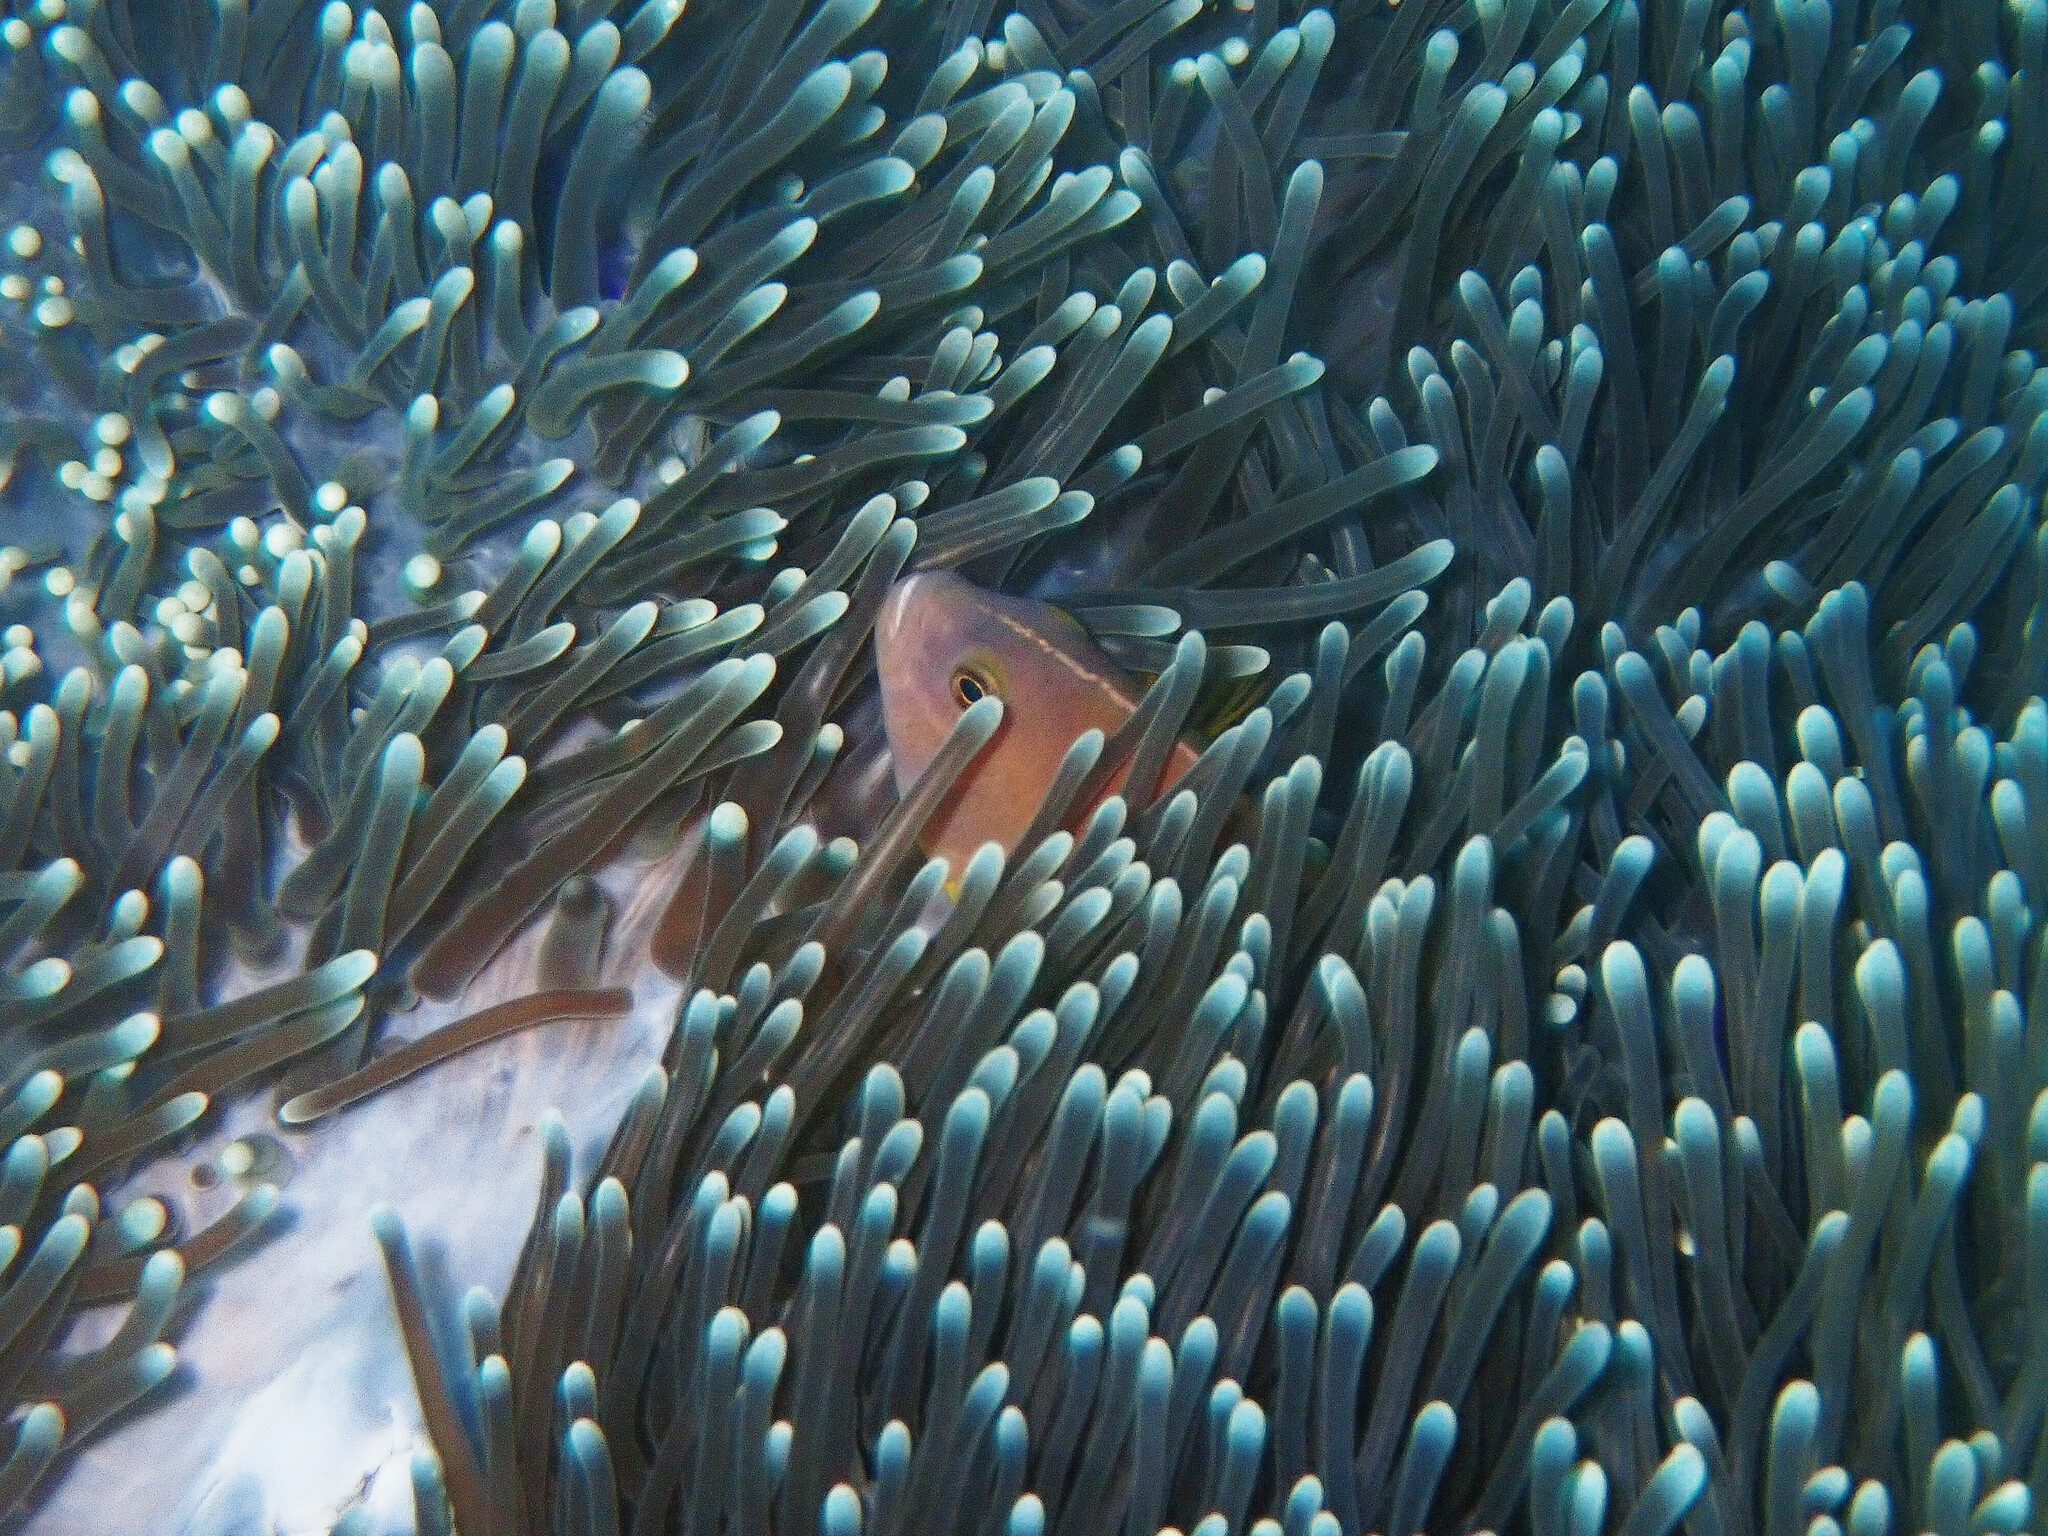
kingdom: Animalia
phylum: Chordata
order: Perciformes
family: Pomacentridae
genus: Amphiprion
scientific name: Amphiprion akallopisos
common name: Skunk clownfish
